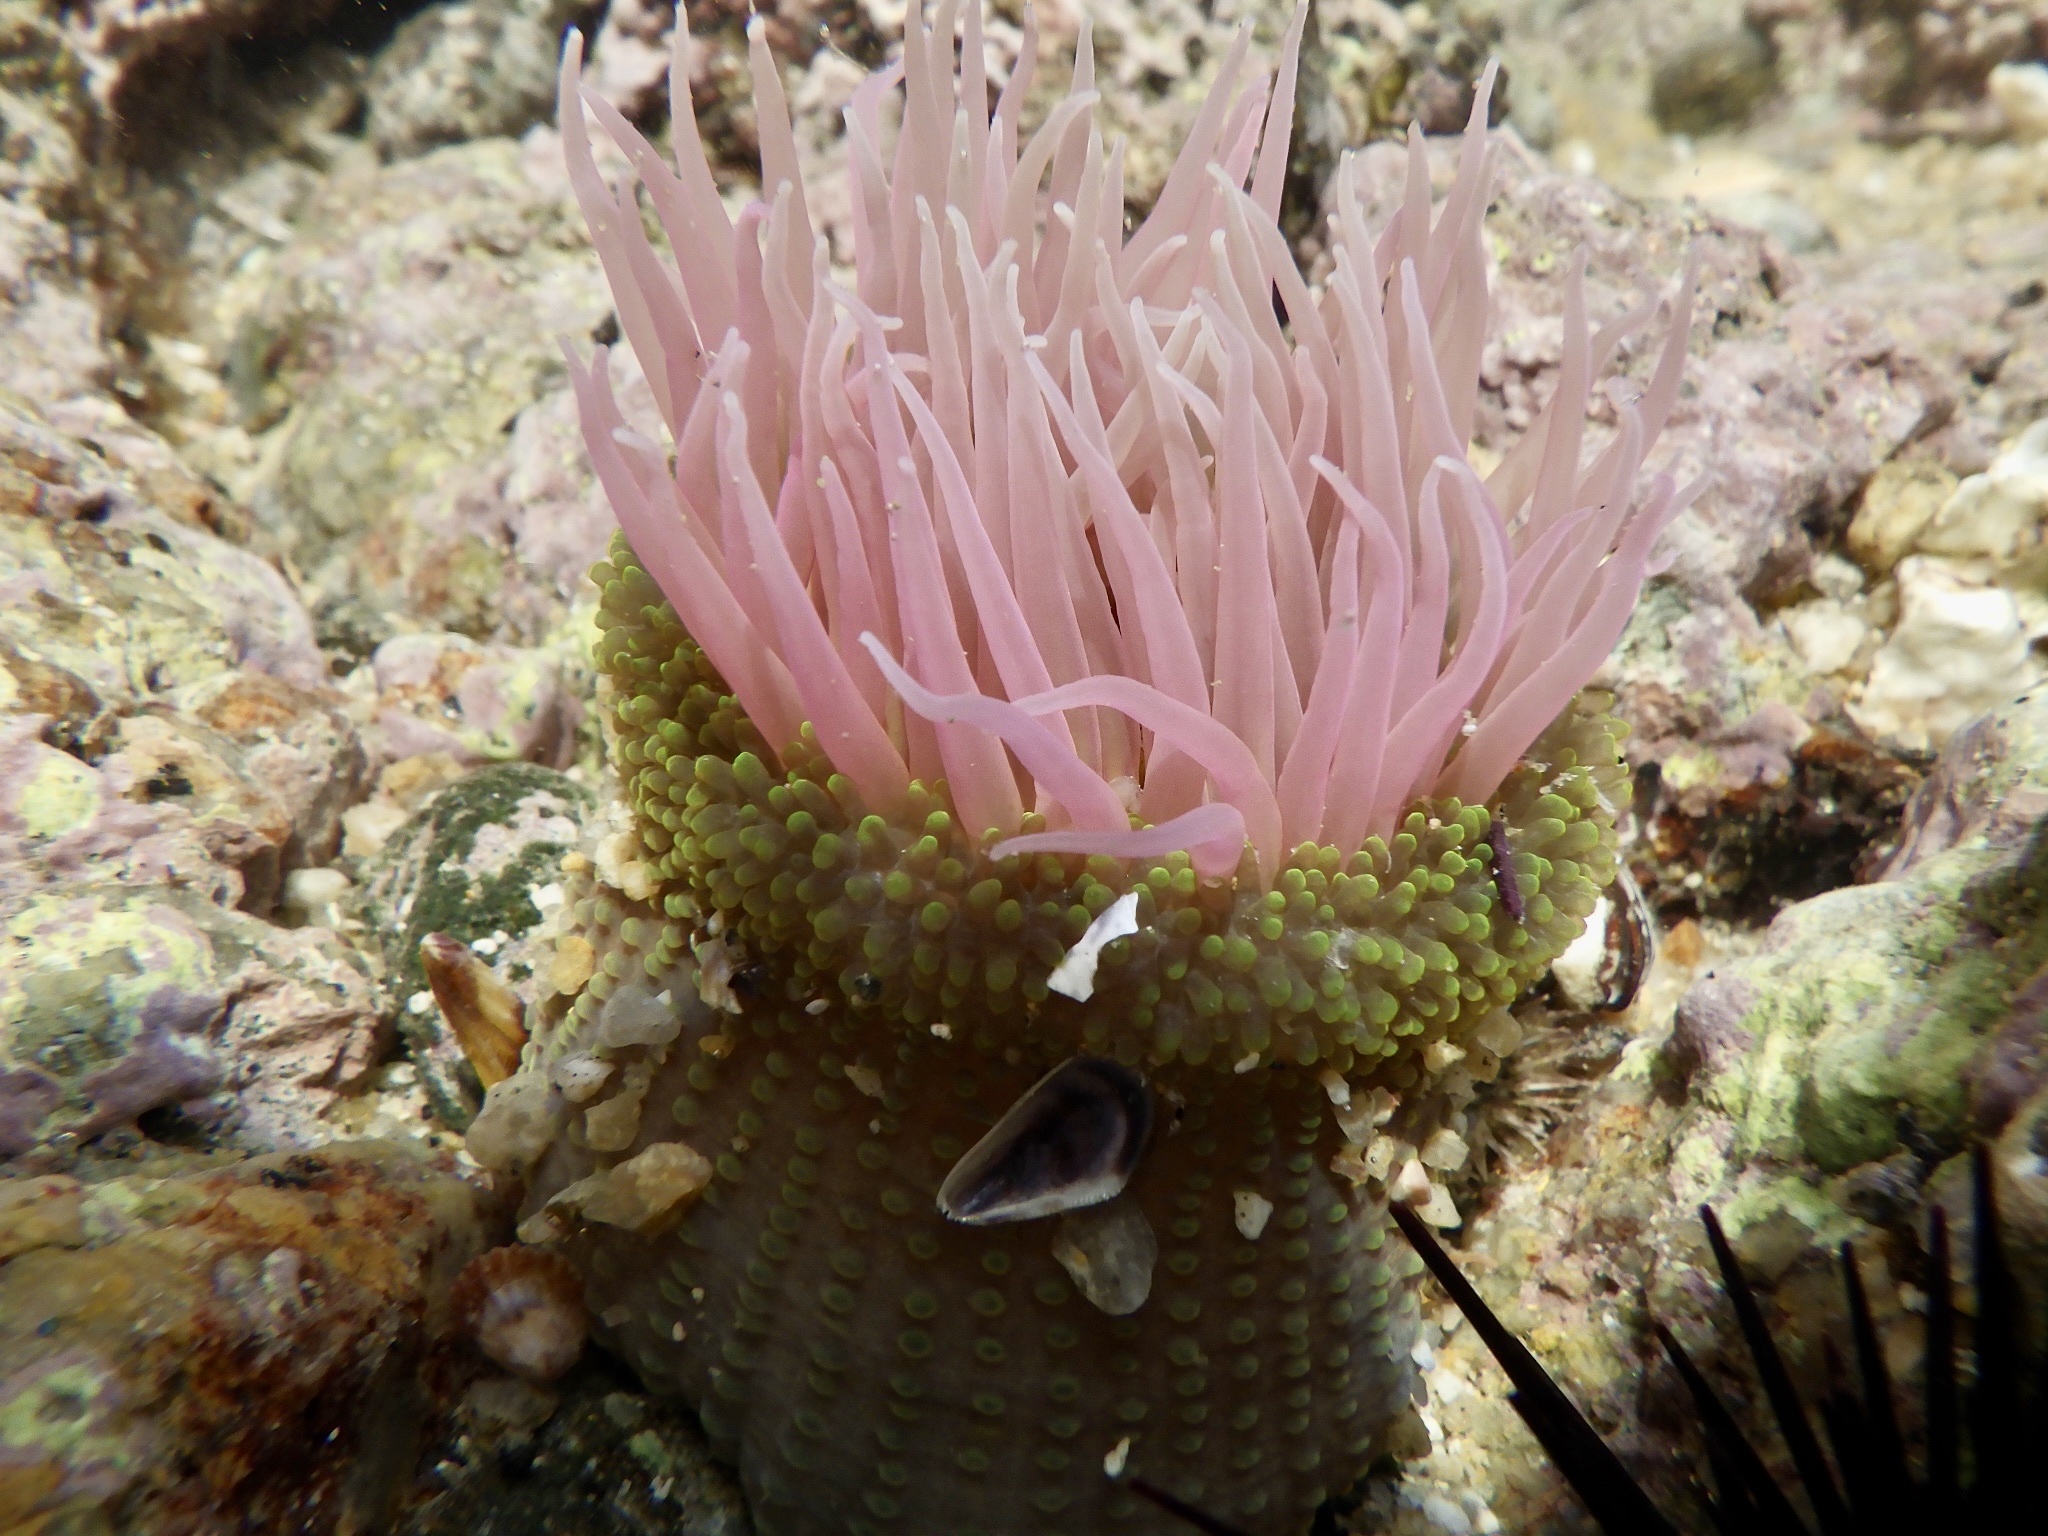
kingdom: Animalia
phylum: Cnidaria
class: Anthozoa
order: Actiniaria
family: Actiniidae
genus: Anthopleura
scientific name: Anthopleura fuscoviridis
